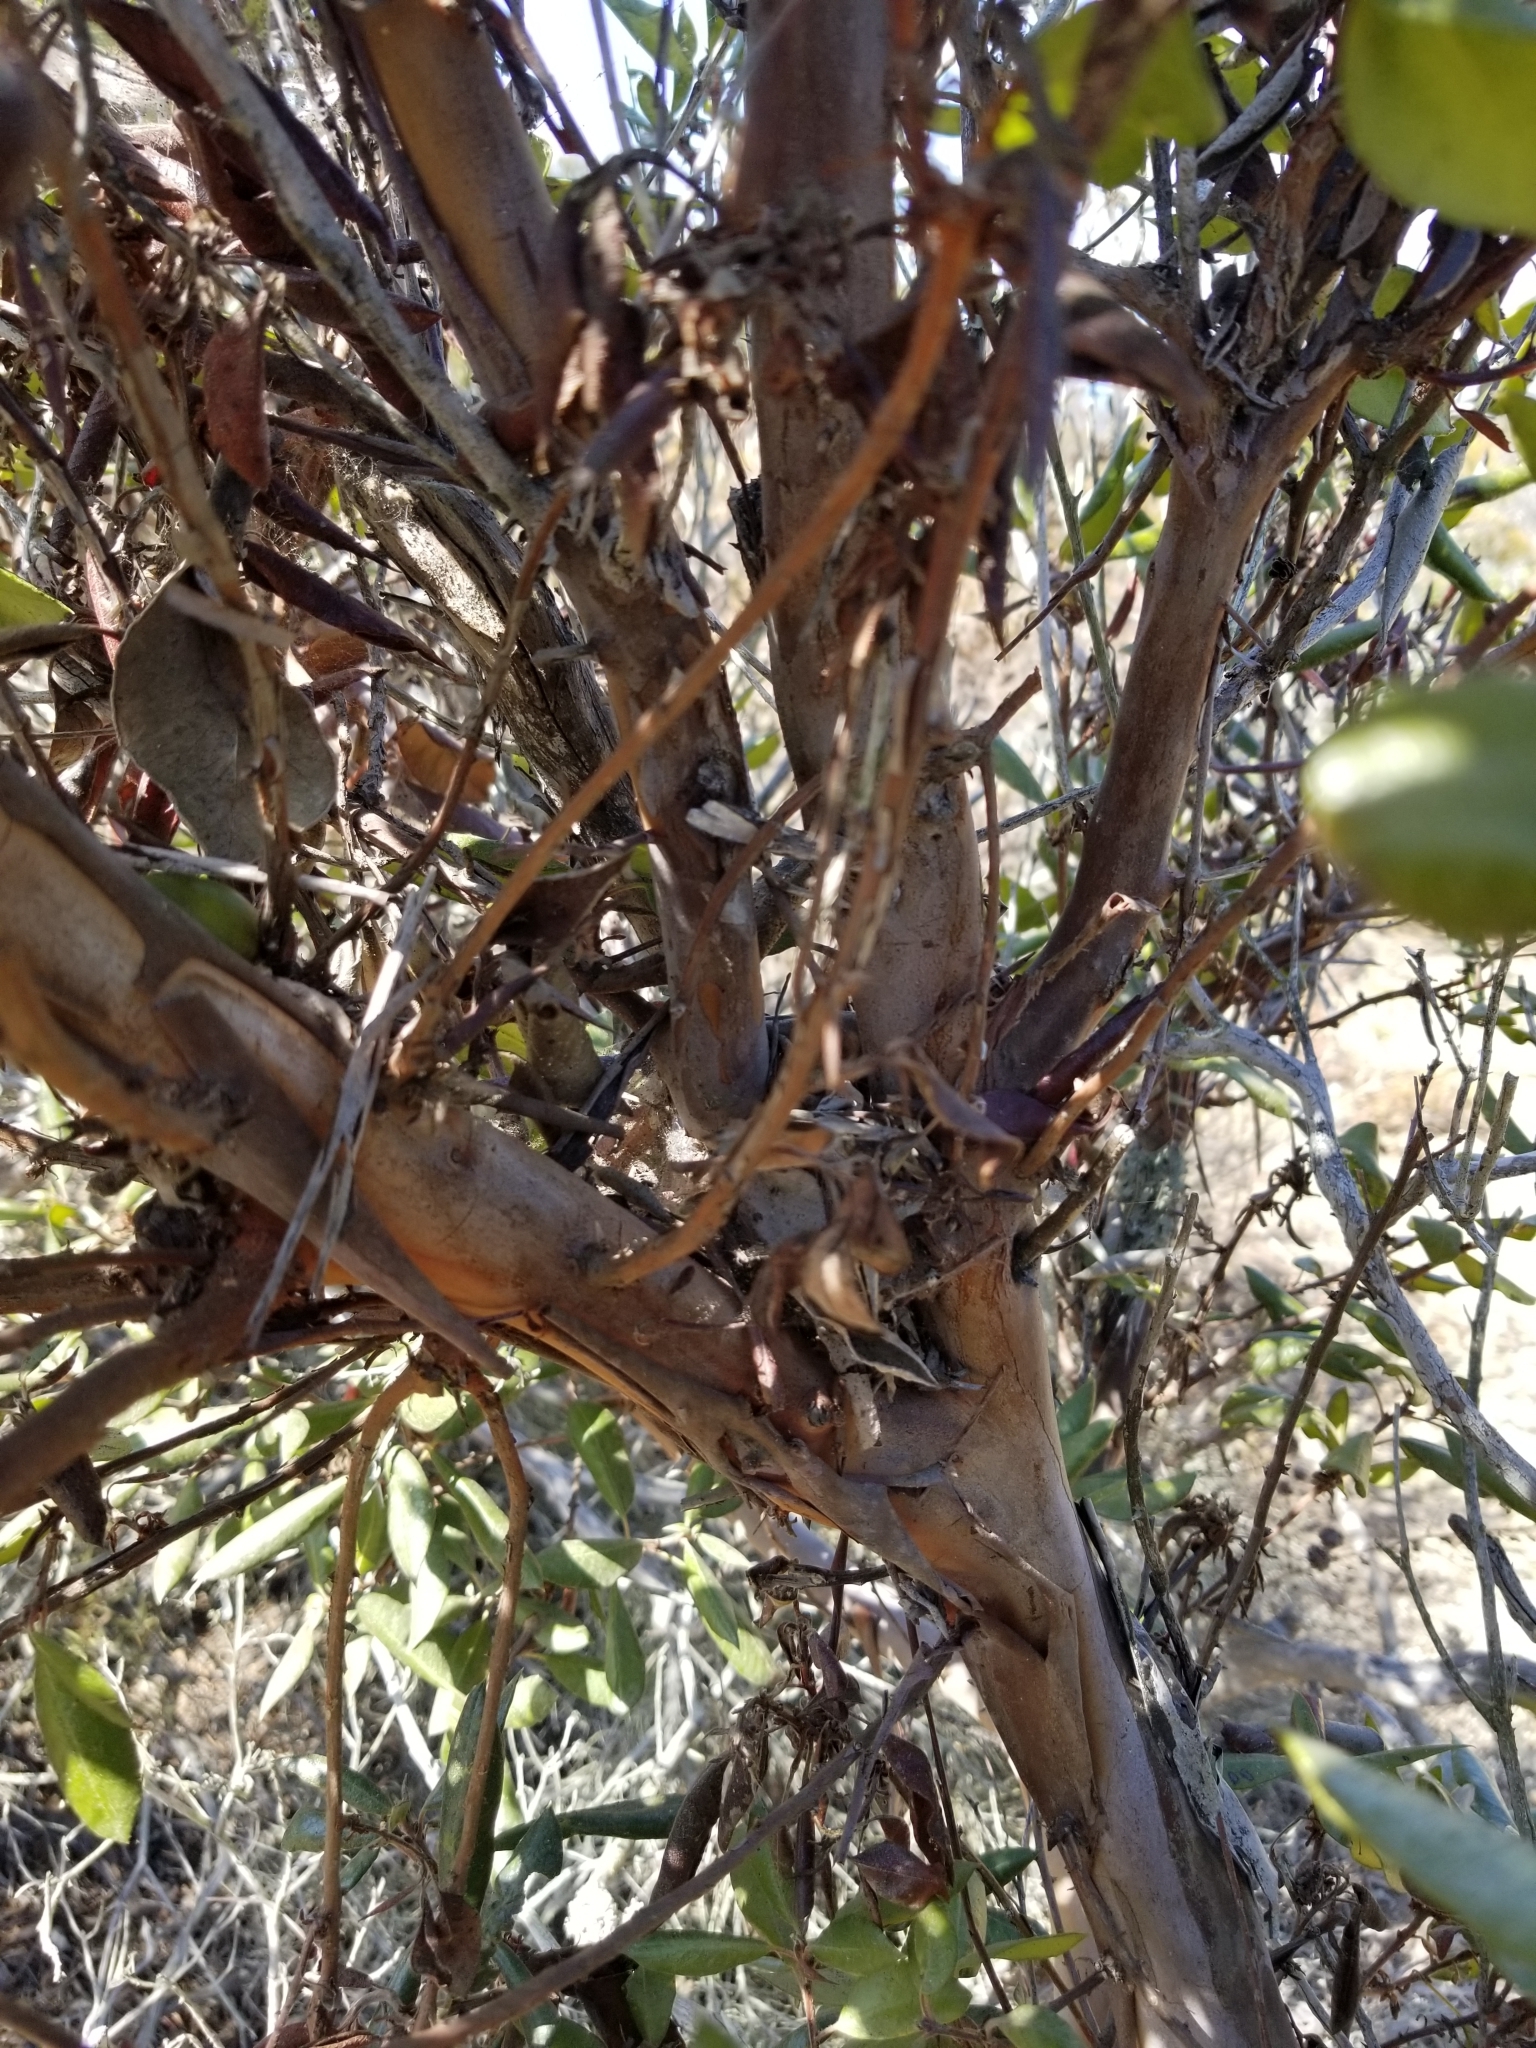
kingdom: Plantae
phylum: Tracheophyta
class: Magnoliopsida
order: Ericales
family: Ericaceae
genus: Arctostaphylos
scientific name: Arctostaphylos bicolor
